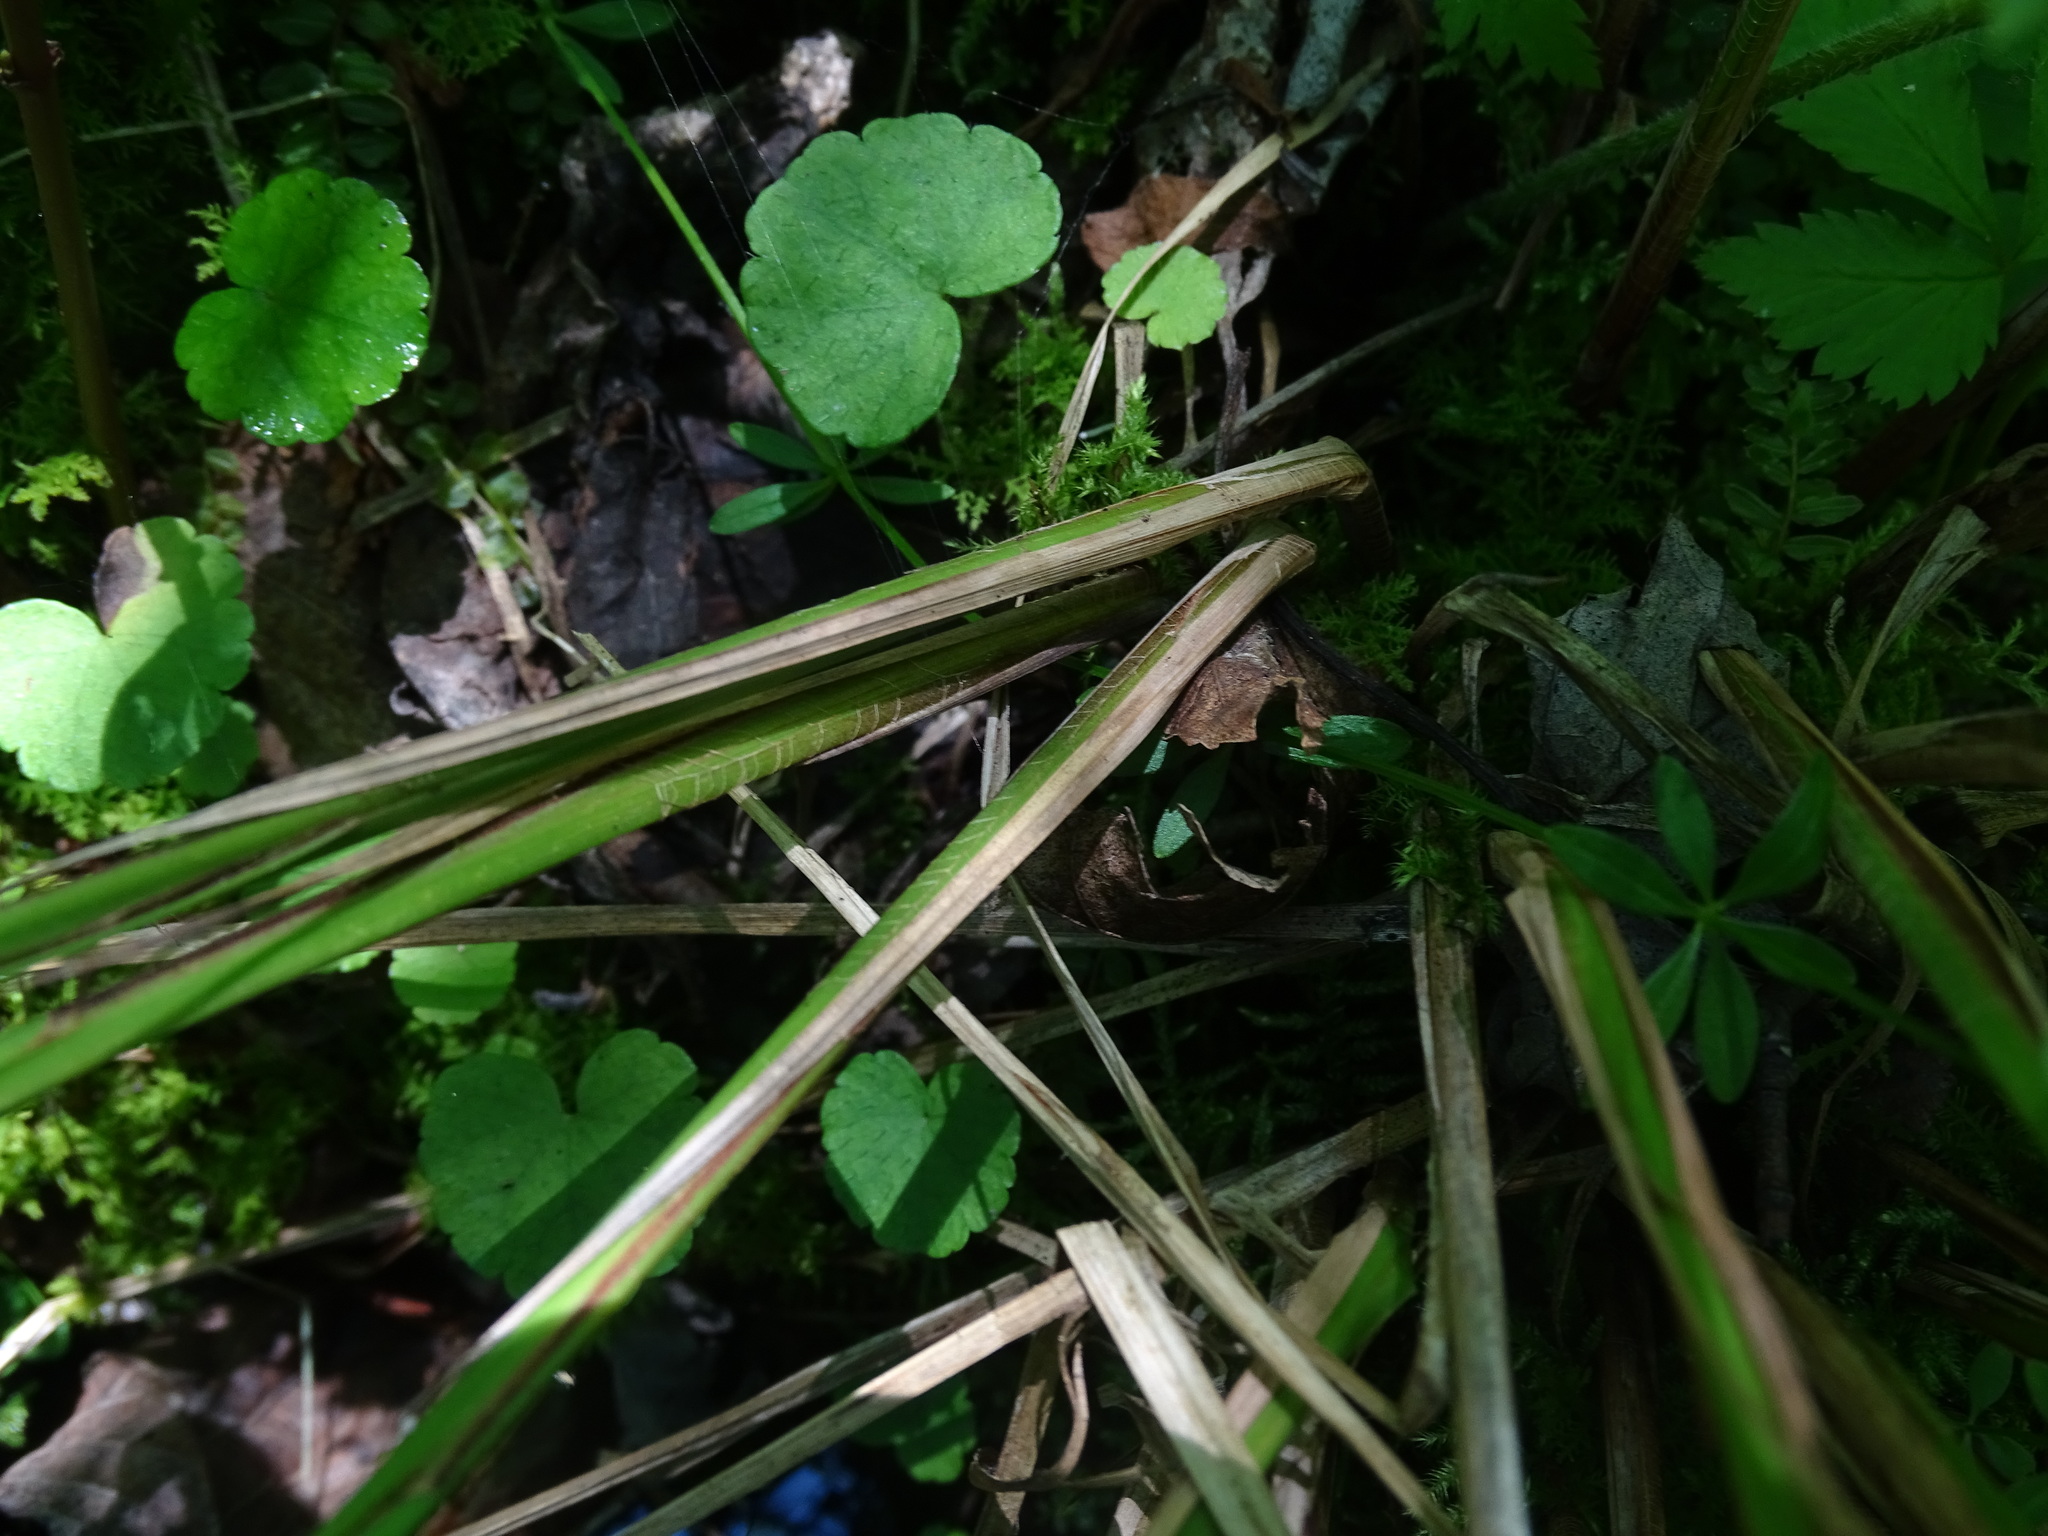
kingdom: Plantae
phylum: Tracheophyta
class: Liliopsida
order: Poales
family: Cyperaceae
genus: Carex
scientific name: Carex stricta
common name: Hummock sedge
